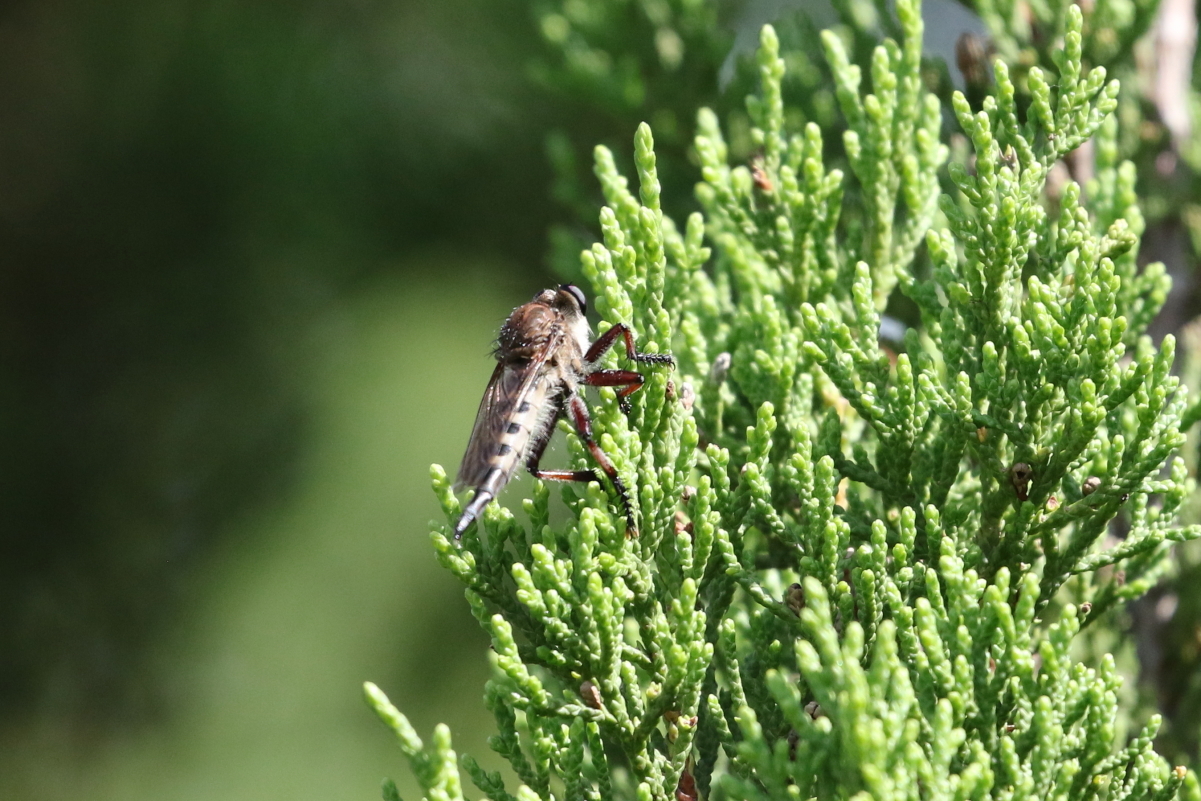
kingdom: Animalia
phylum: Arthropoda
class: Insecta
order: Diptera
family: Asilidae
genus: Promachus
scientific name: Promachus hinei
